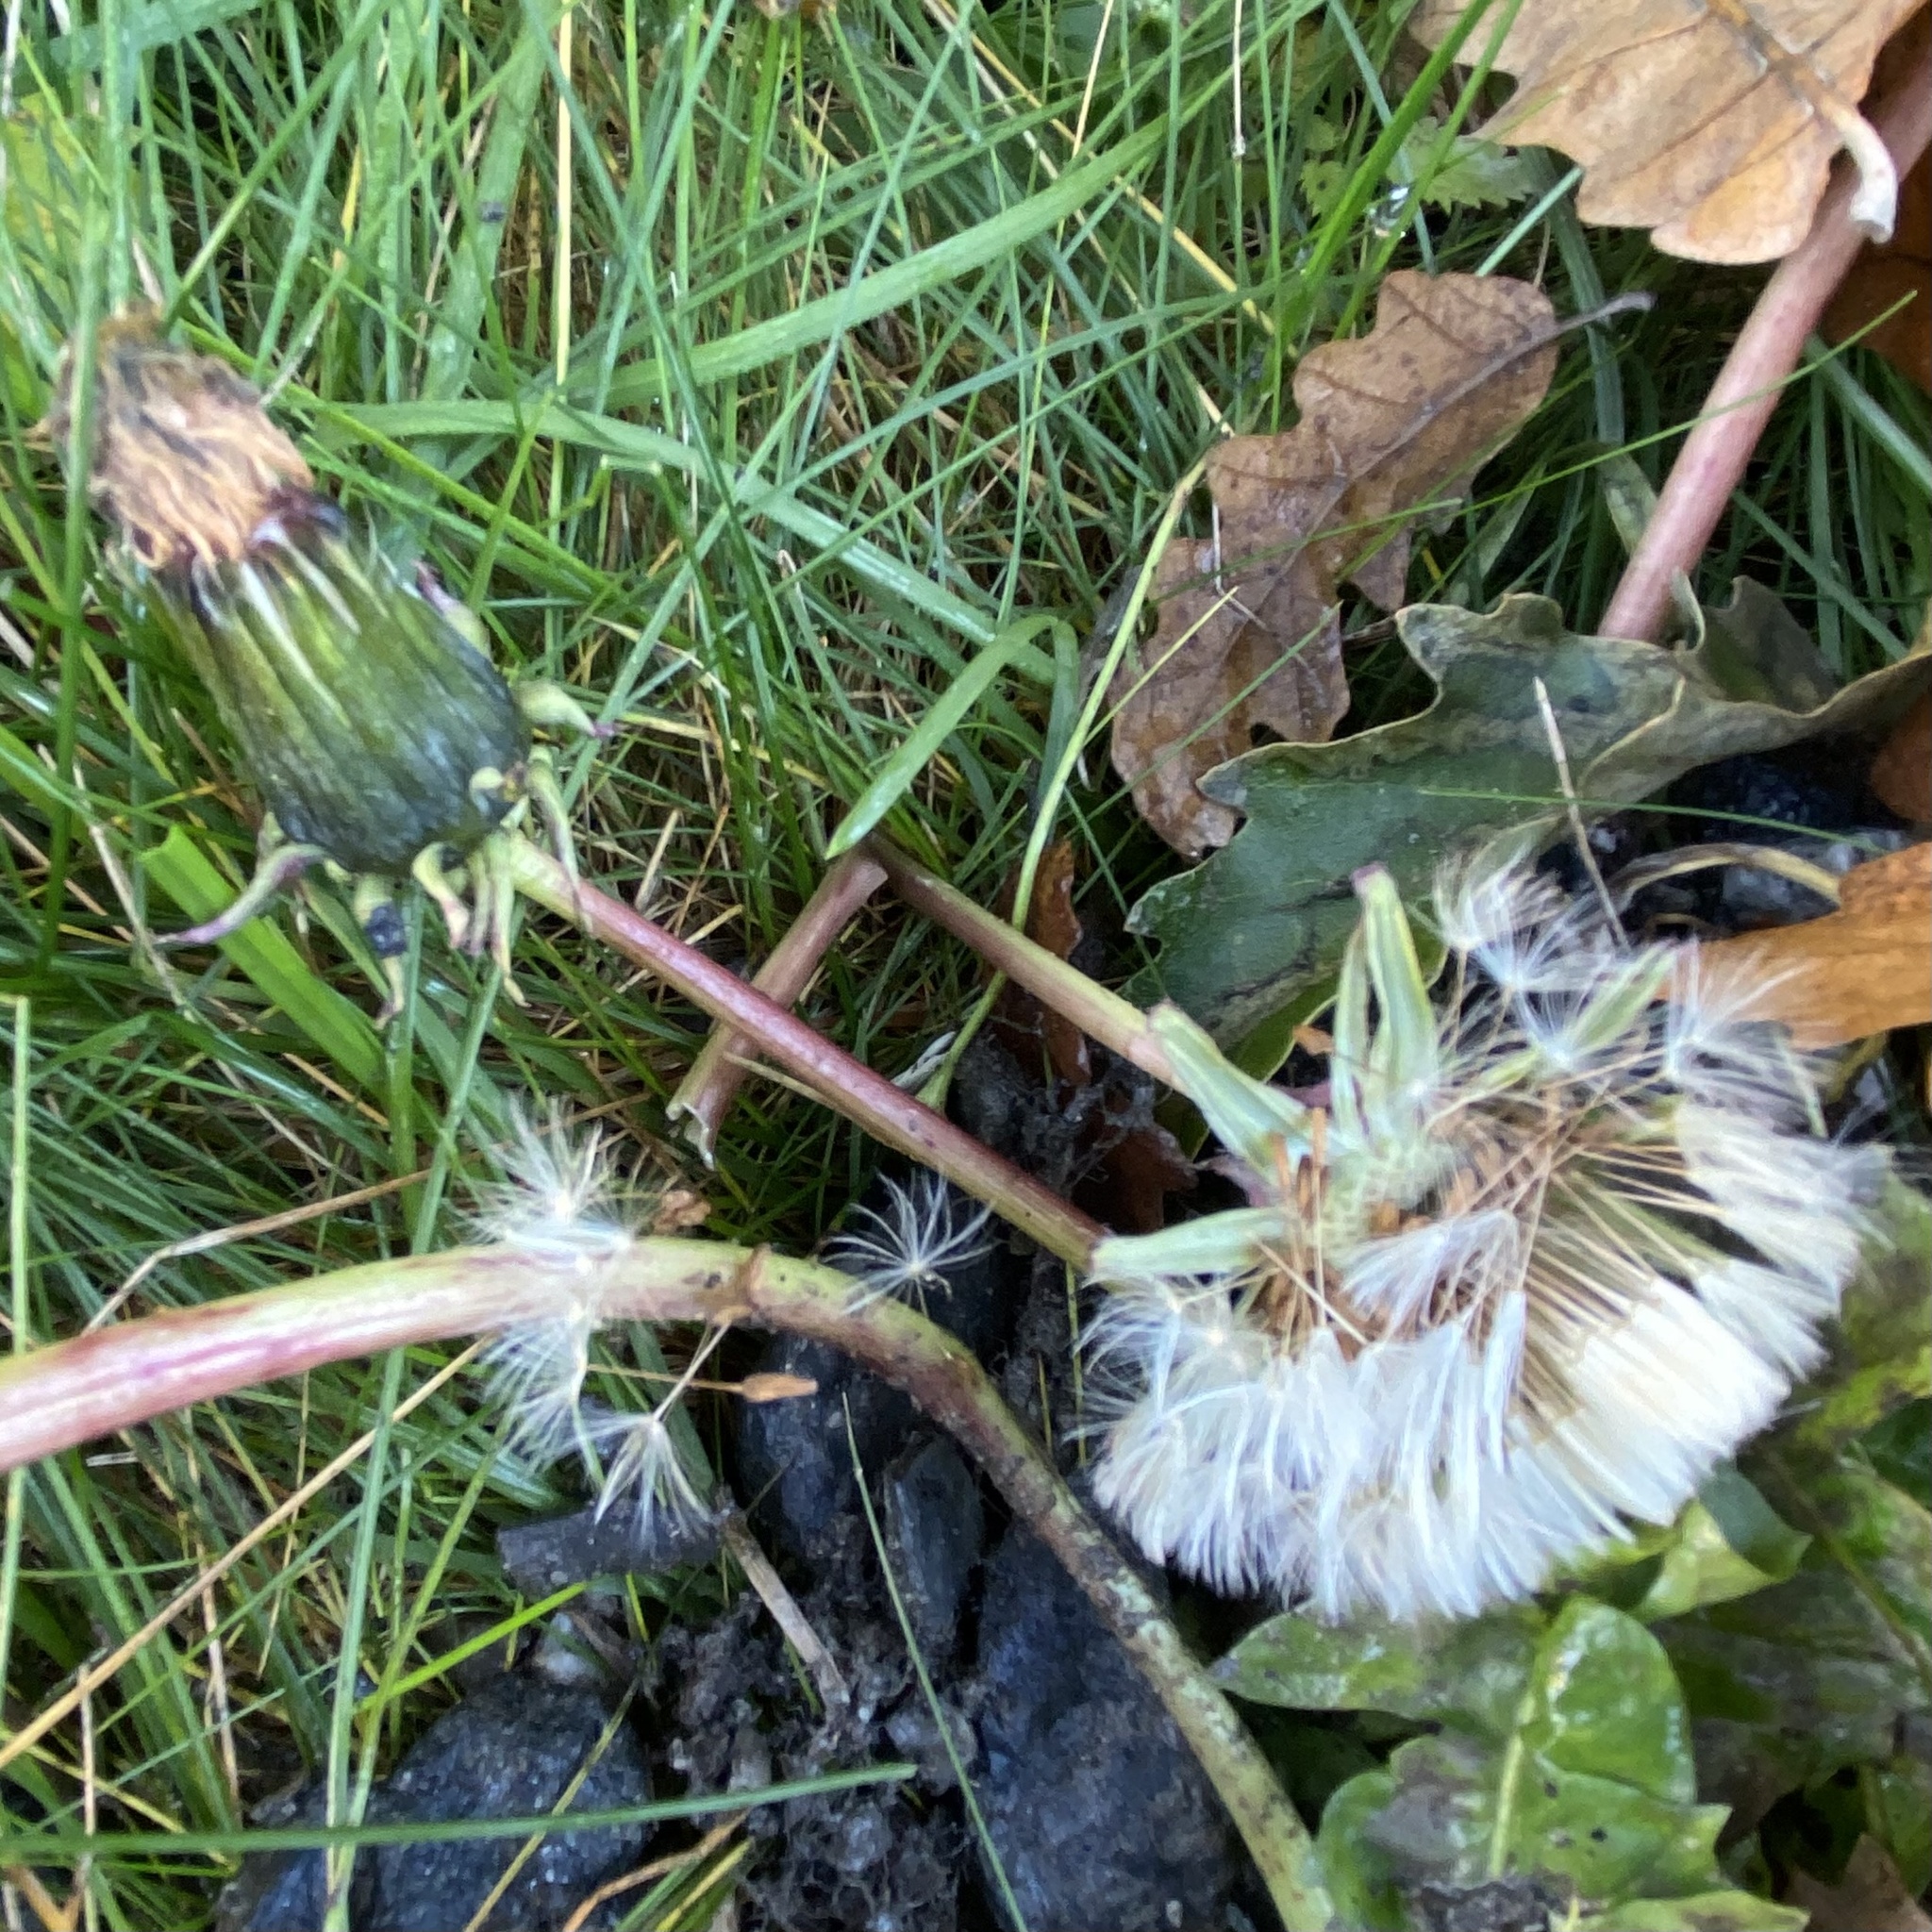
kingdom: Plantae
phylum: Tracheophyta
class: Magnoliopsida
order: Asterales
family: Asteraceae
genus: Taraxacum
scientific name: Taraxacum officinale
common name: Common dandelion
